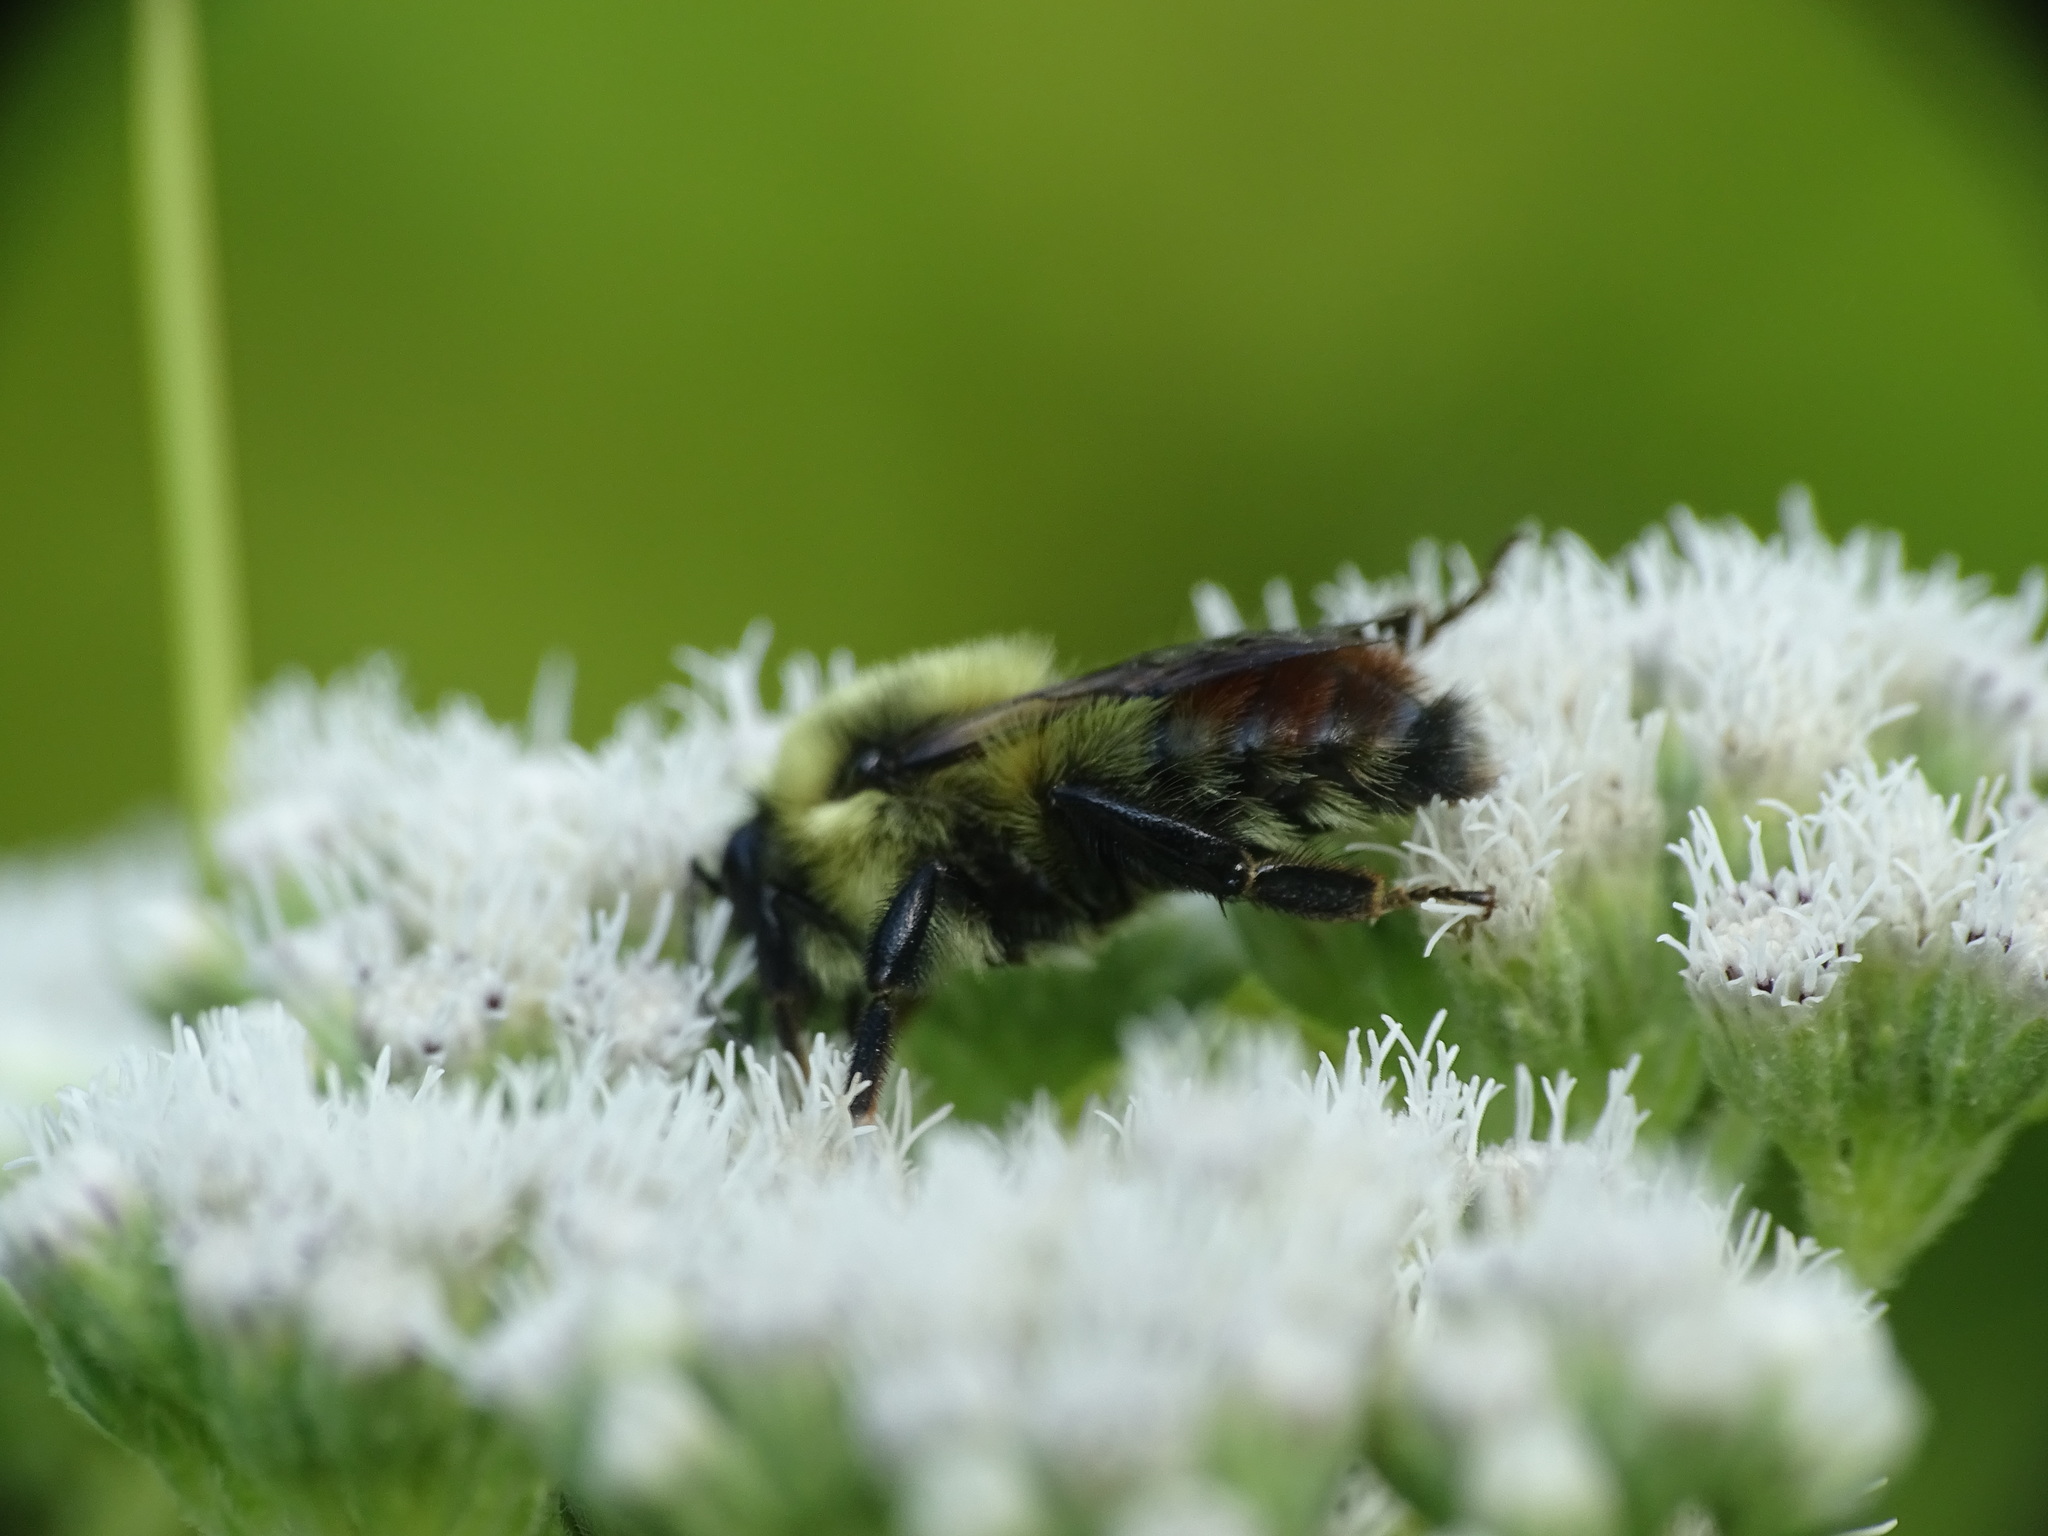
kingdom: Animalia
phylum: Arthropoda
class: Insecta
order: Hymenoptera
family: Apidae
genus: Bombus
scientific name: Bombus rufocinctus
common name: Red-belted bumble bee
